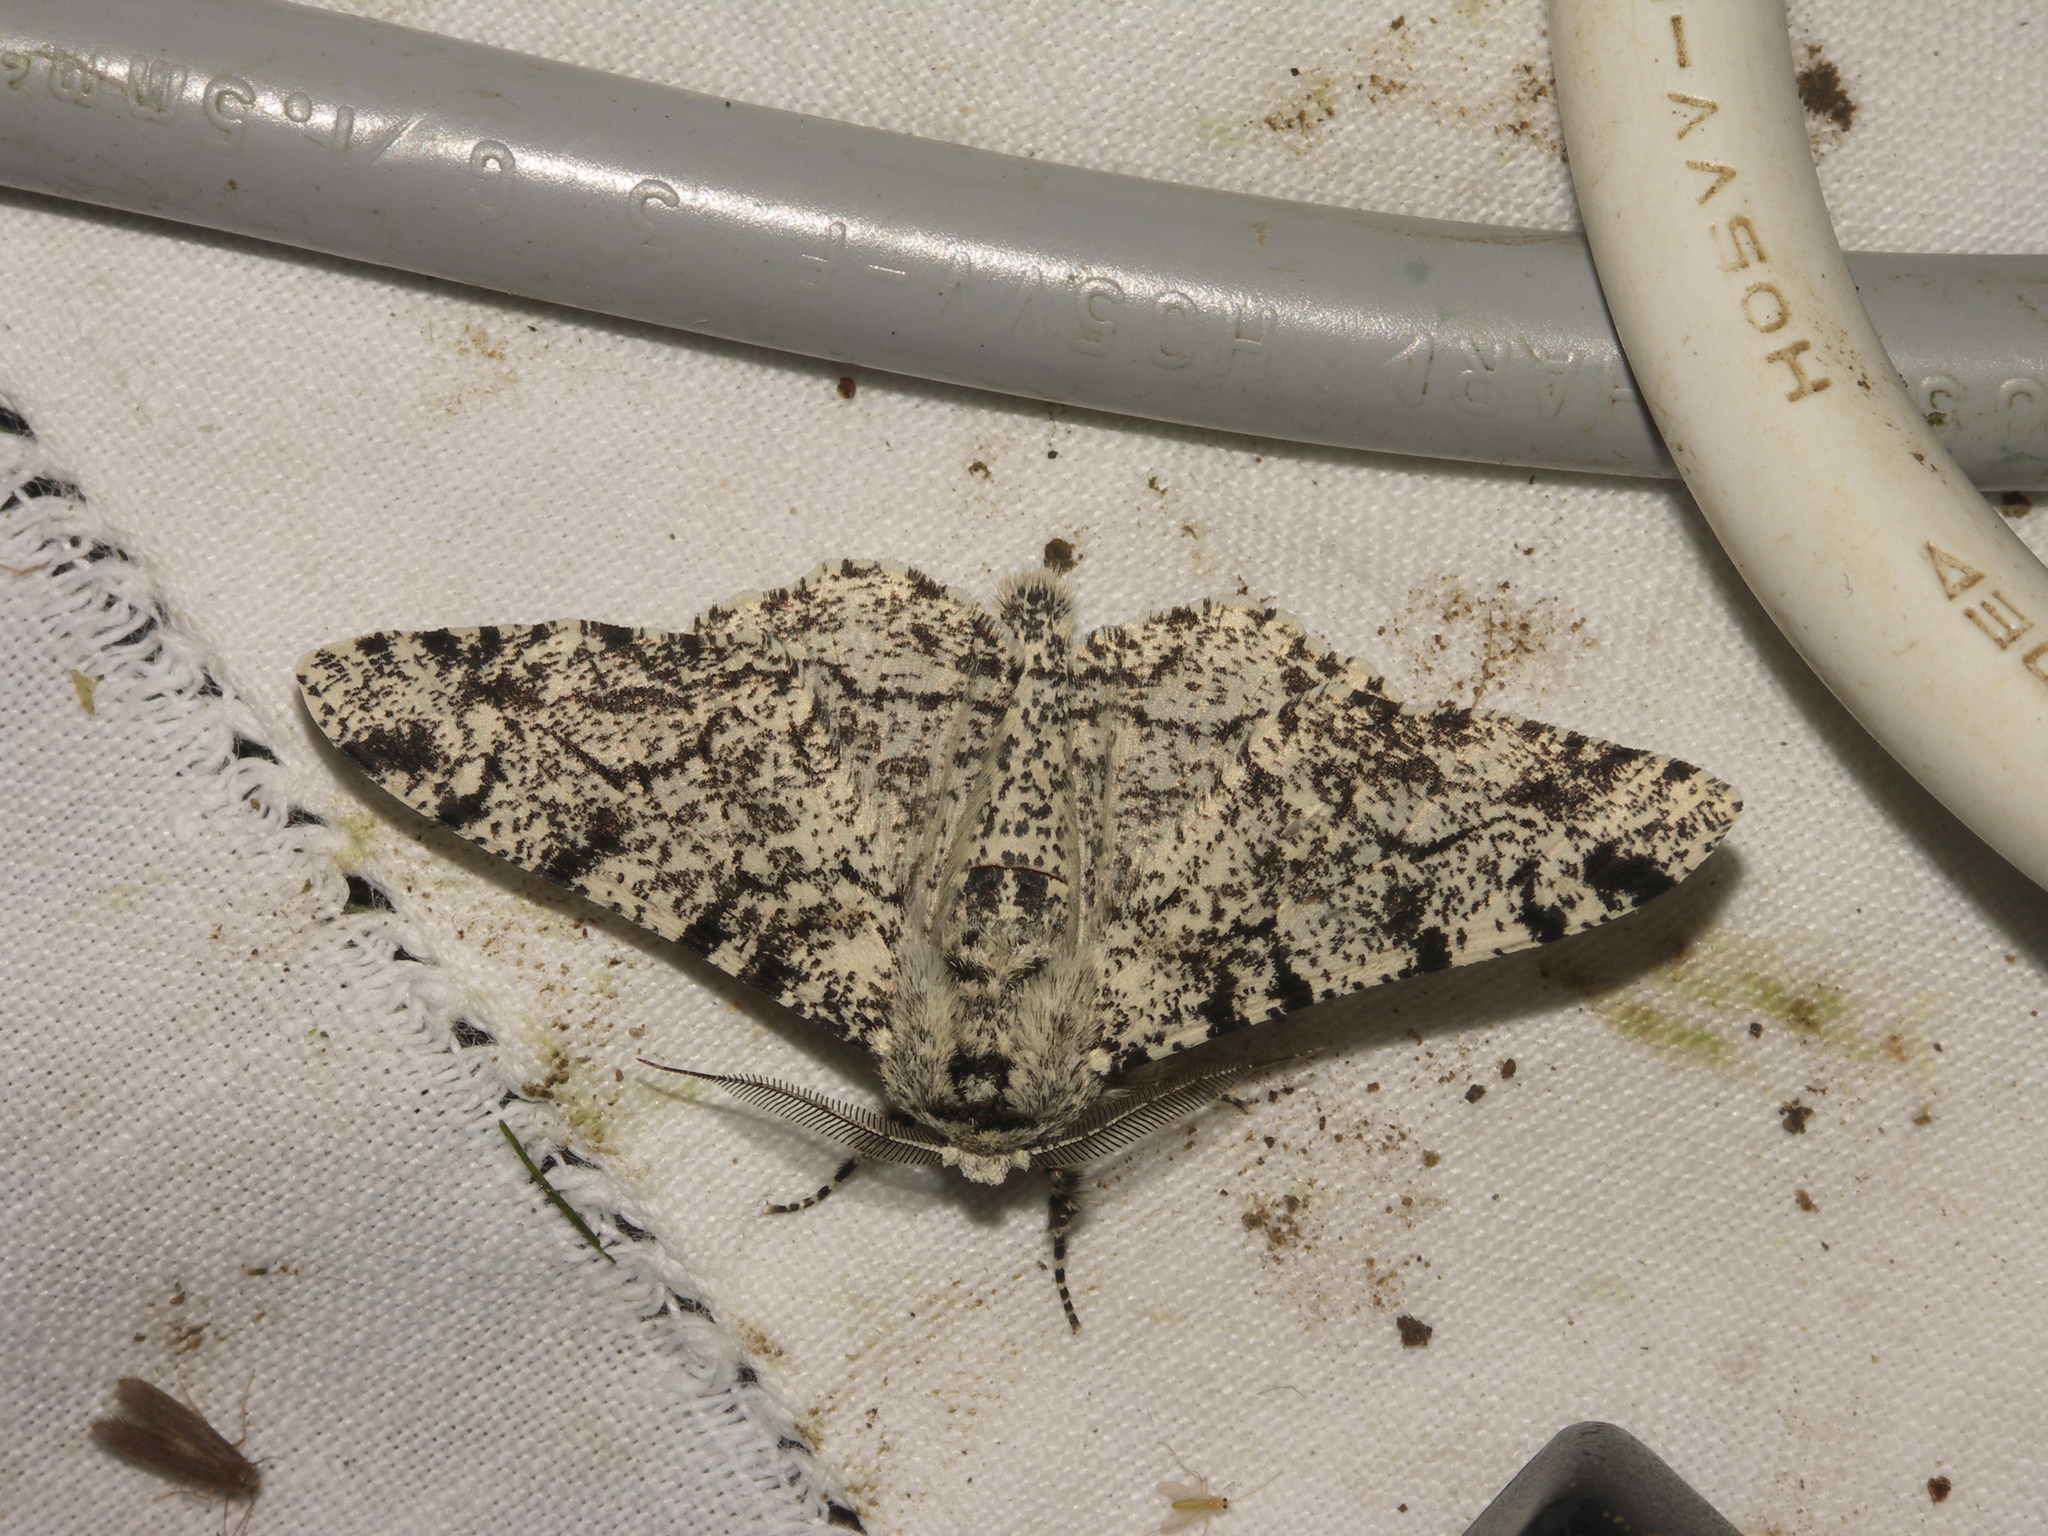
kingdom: Animalia
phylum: Arthropoda
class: Insecta
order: Lepidoptera
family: Geometridae
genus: Biston
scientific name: Biston betularia
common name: Peppered moth
